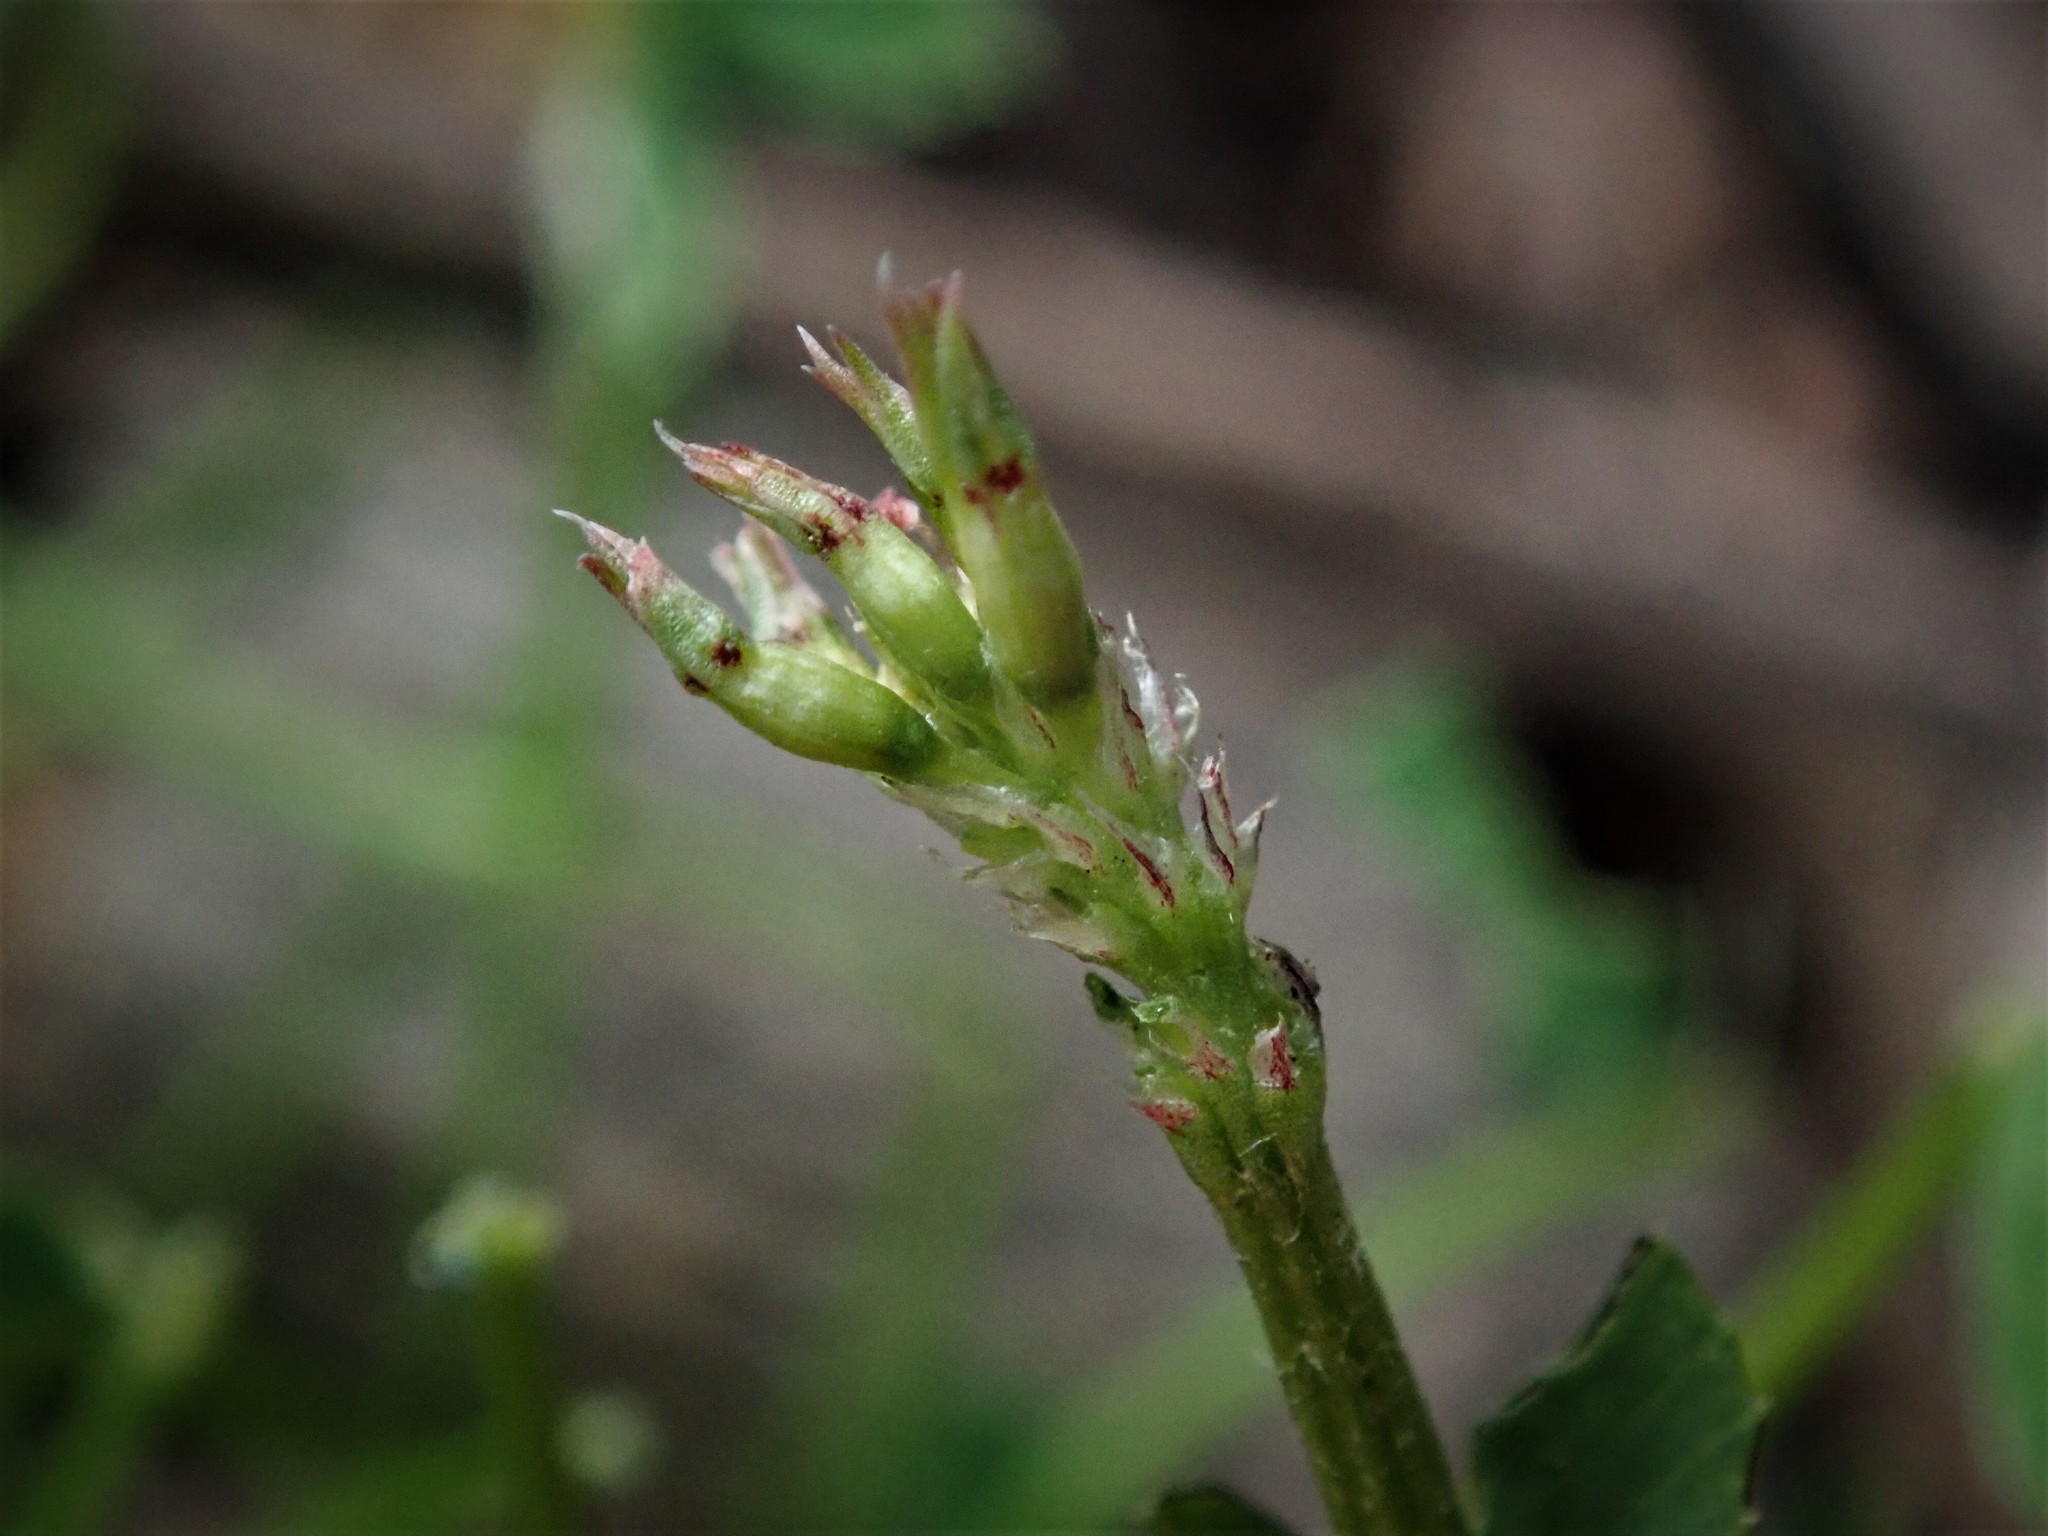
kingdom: Plantae
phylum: Tracheophyta
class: Magnoliopsida
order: Fabales
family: Fabaceae
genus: Trifolium
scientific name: Trifolium ornithopodioides
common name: Bird's-foot clover
